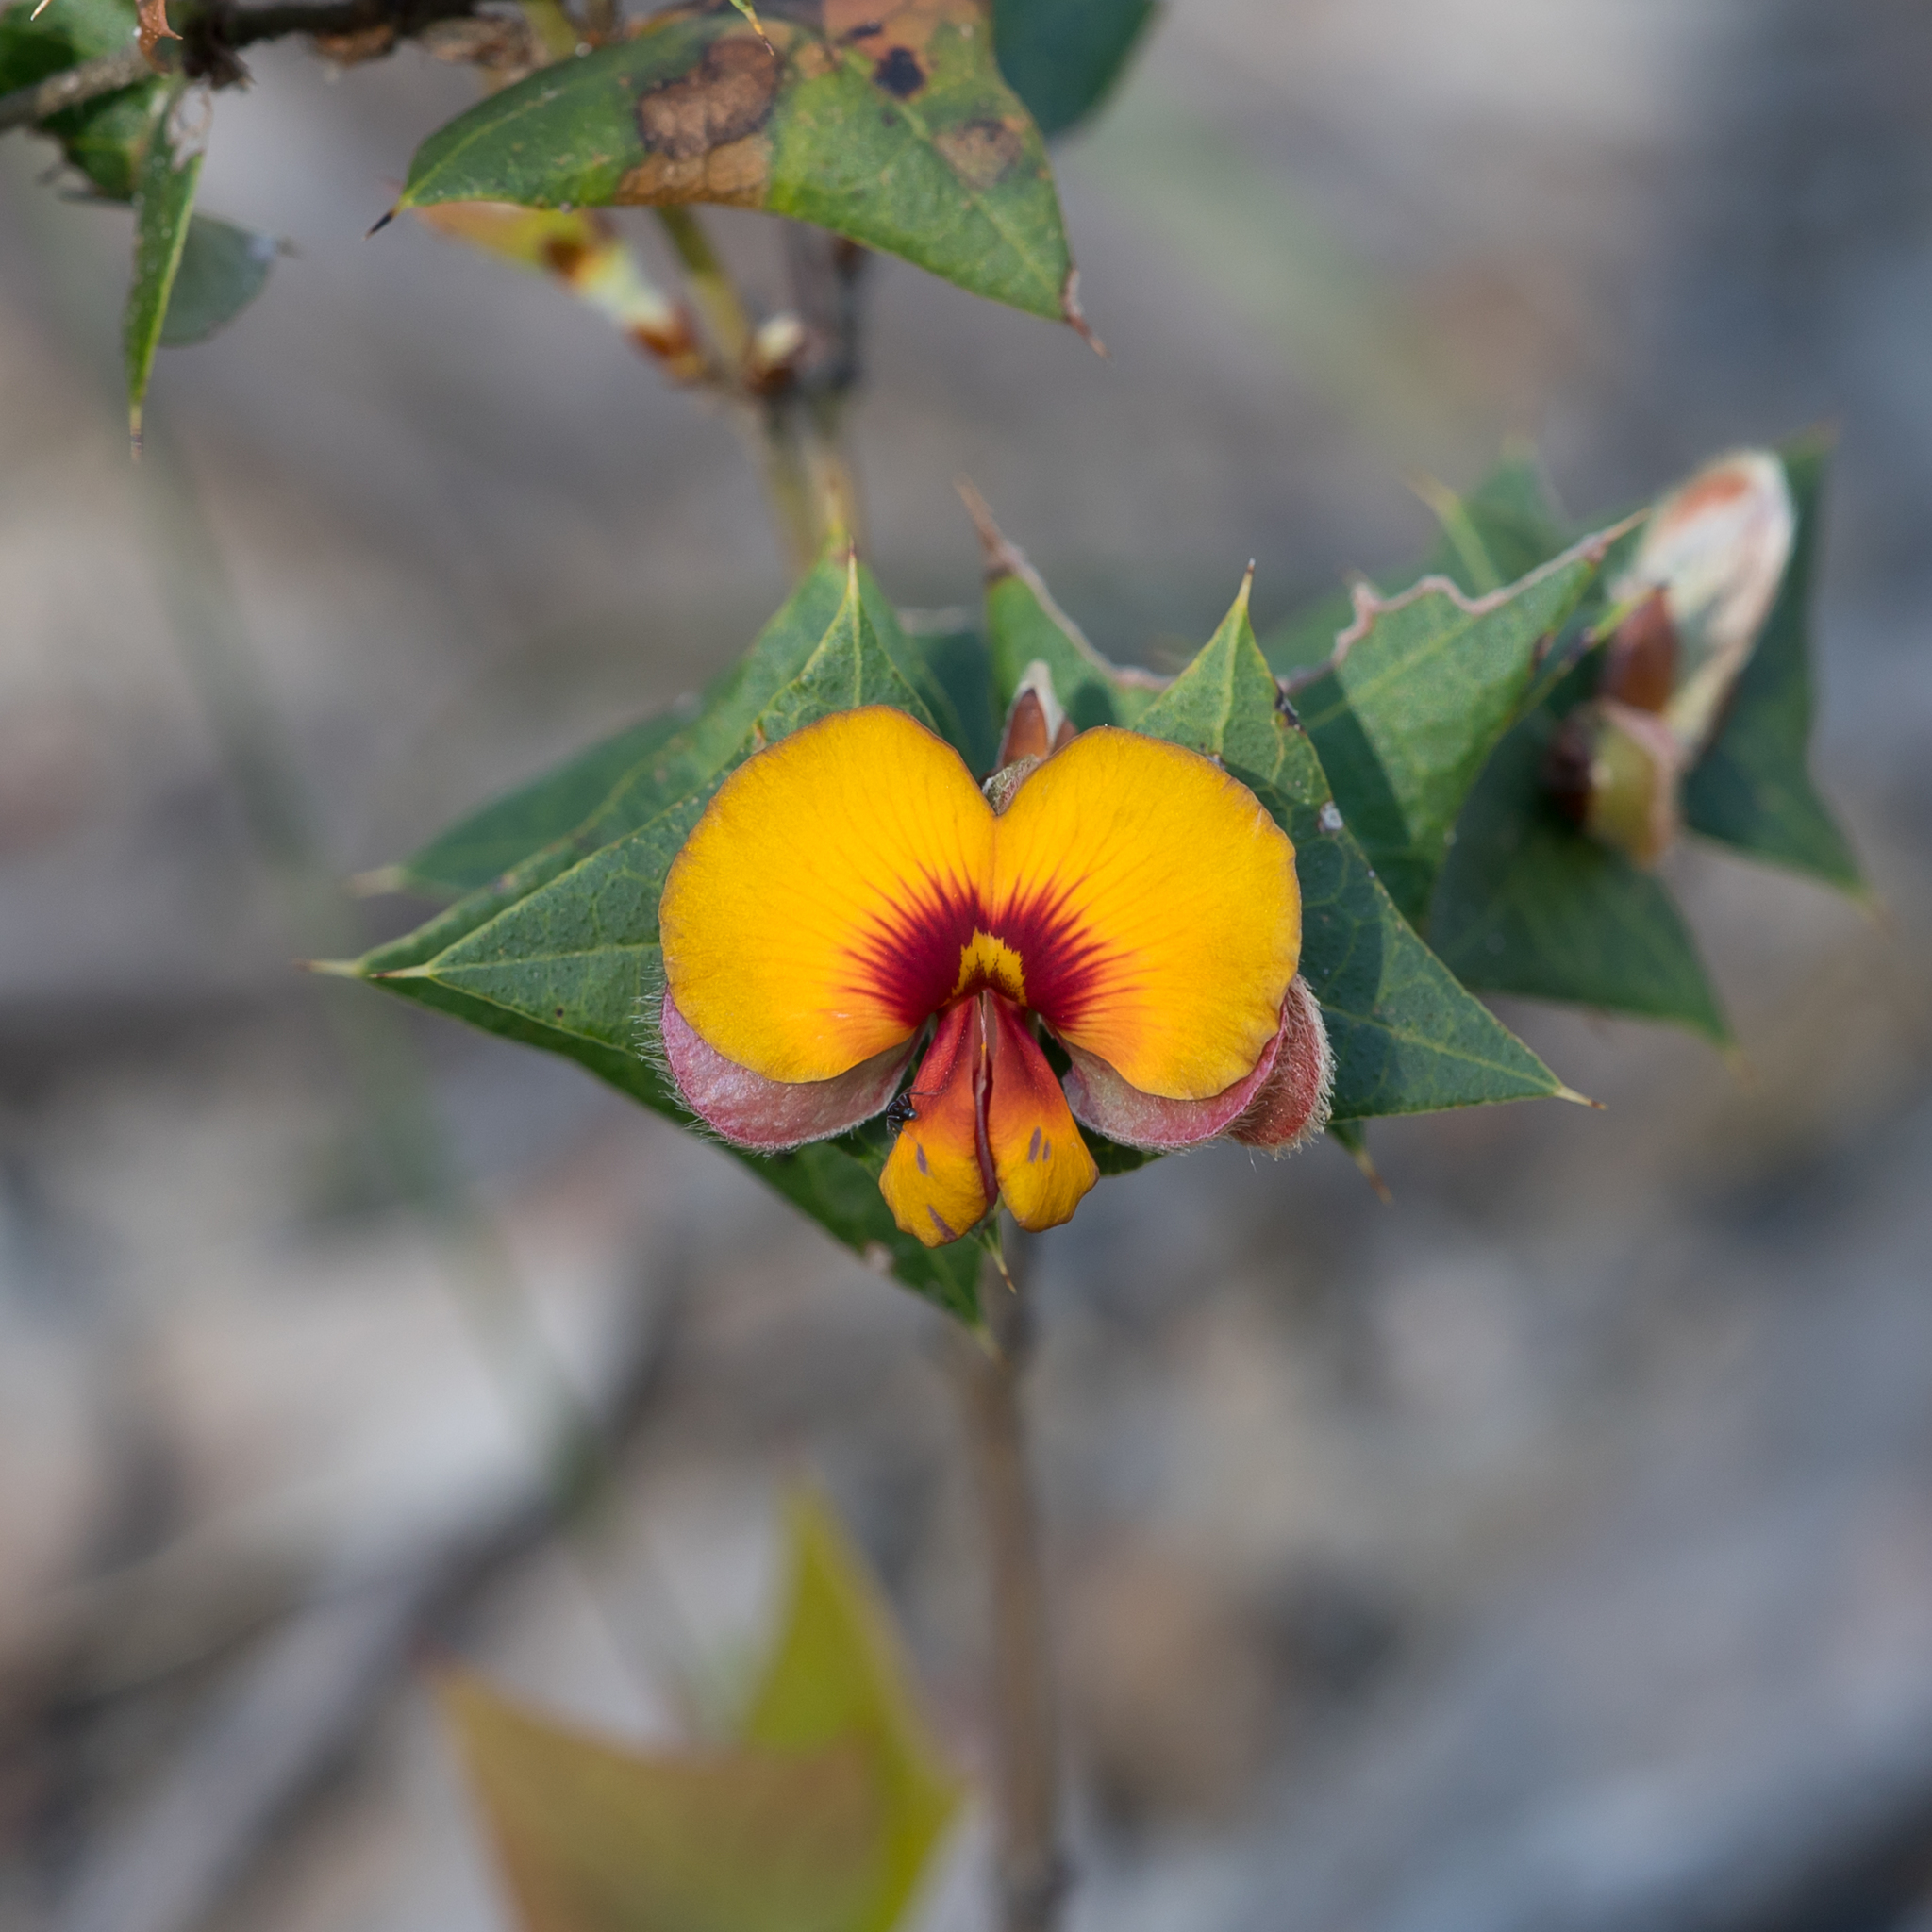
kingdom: Plantae
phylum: Tracheophyta
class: Magnoliopsida
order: Fabales
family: Fabaceae
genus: Platylobium
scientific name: Platylobium obtusangulum
